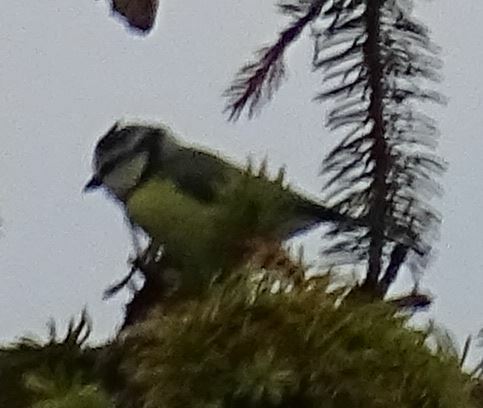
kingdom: Animalia
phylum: Chordata
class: Aves
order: Passeriformes
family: Paridae
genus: Cyanistes
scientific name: Cyanistes caeruleus
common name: Eurasian blue tit
